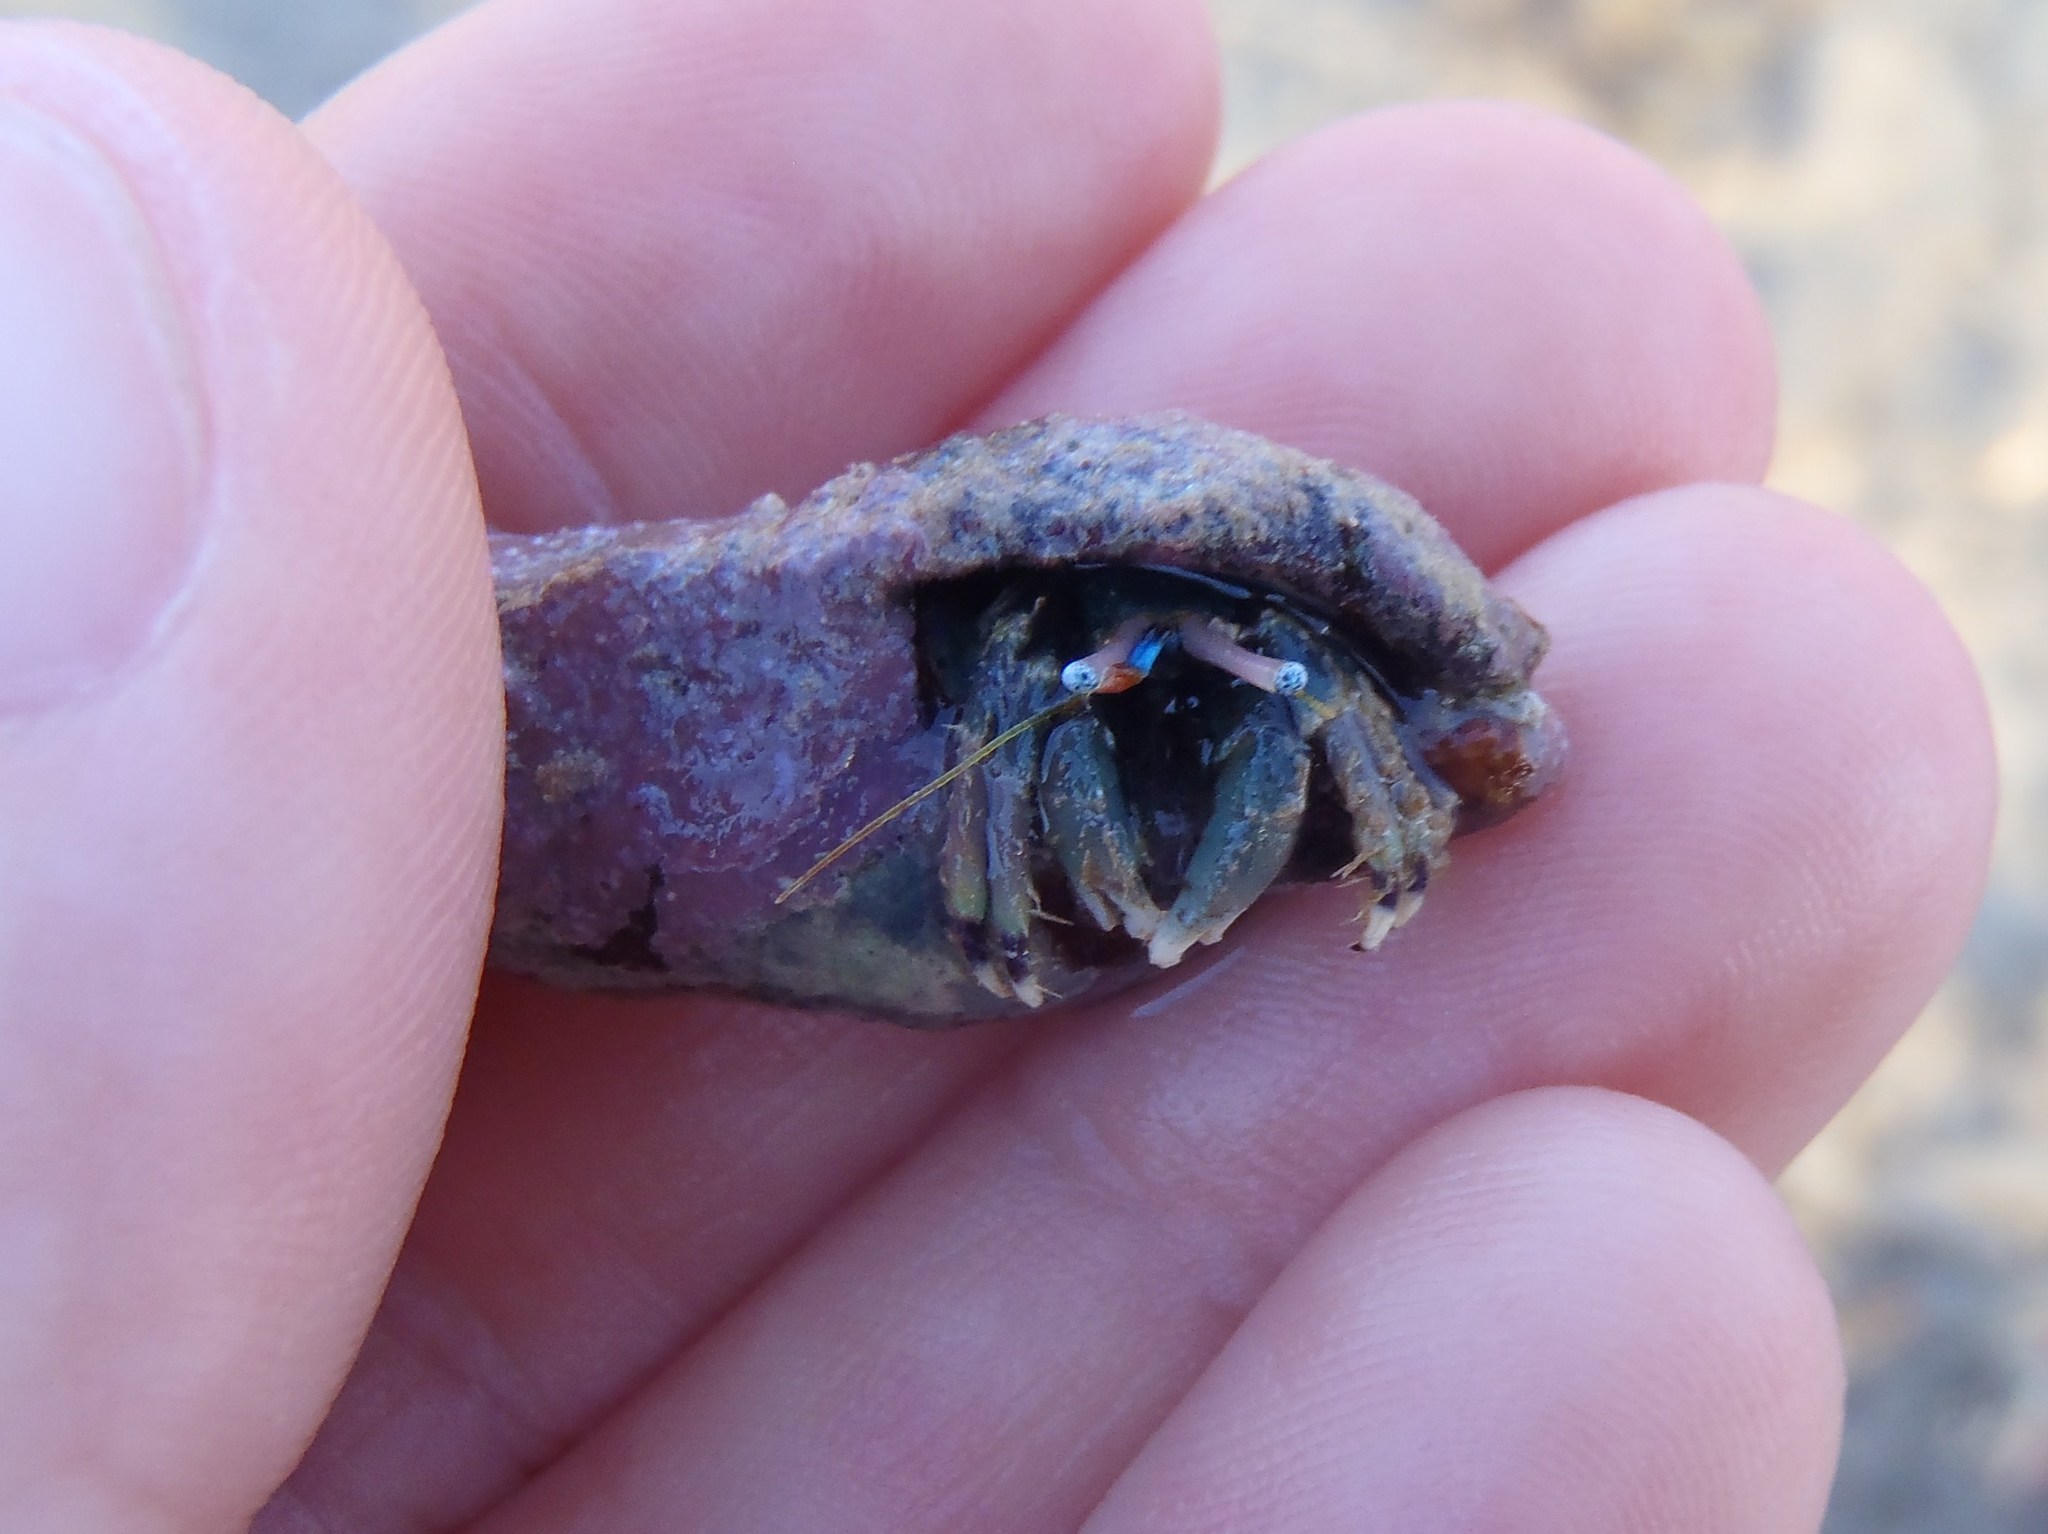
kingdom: Animalia
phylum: Arthropoda
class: Malacostraca
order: Decapoda
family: Diogenidae
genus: Calcinus
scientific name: Calcinus latens
